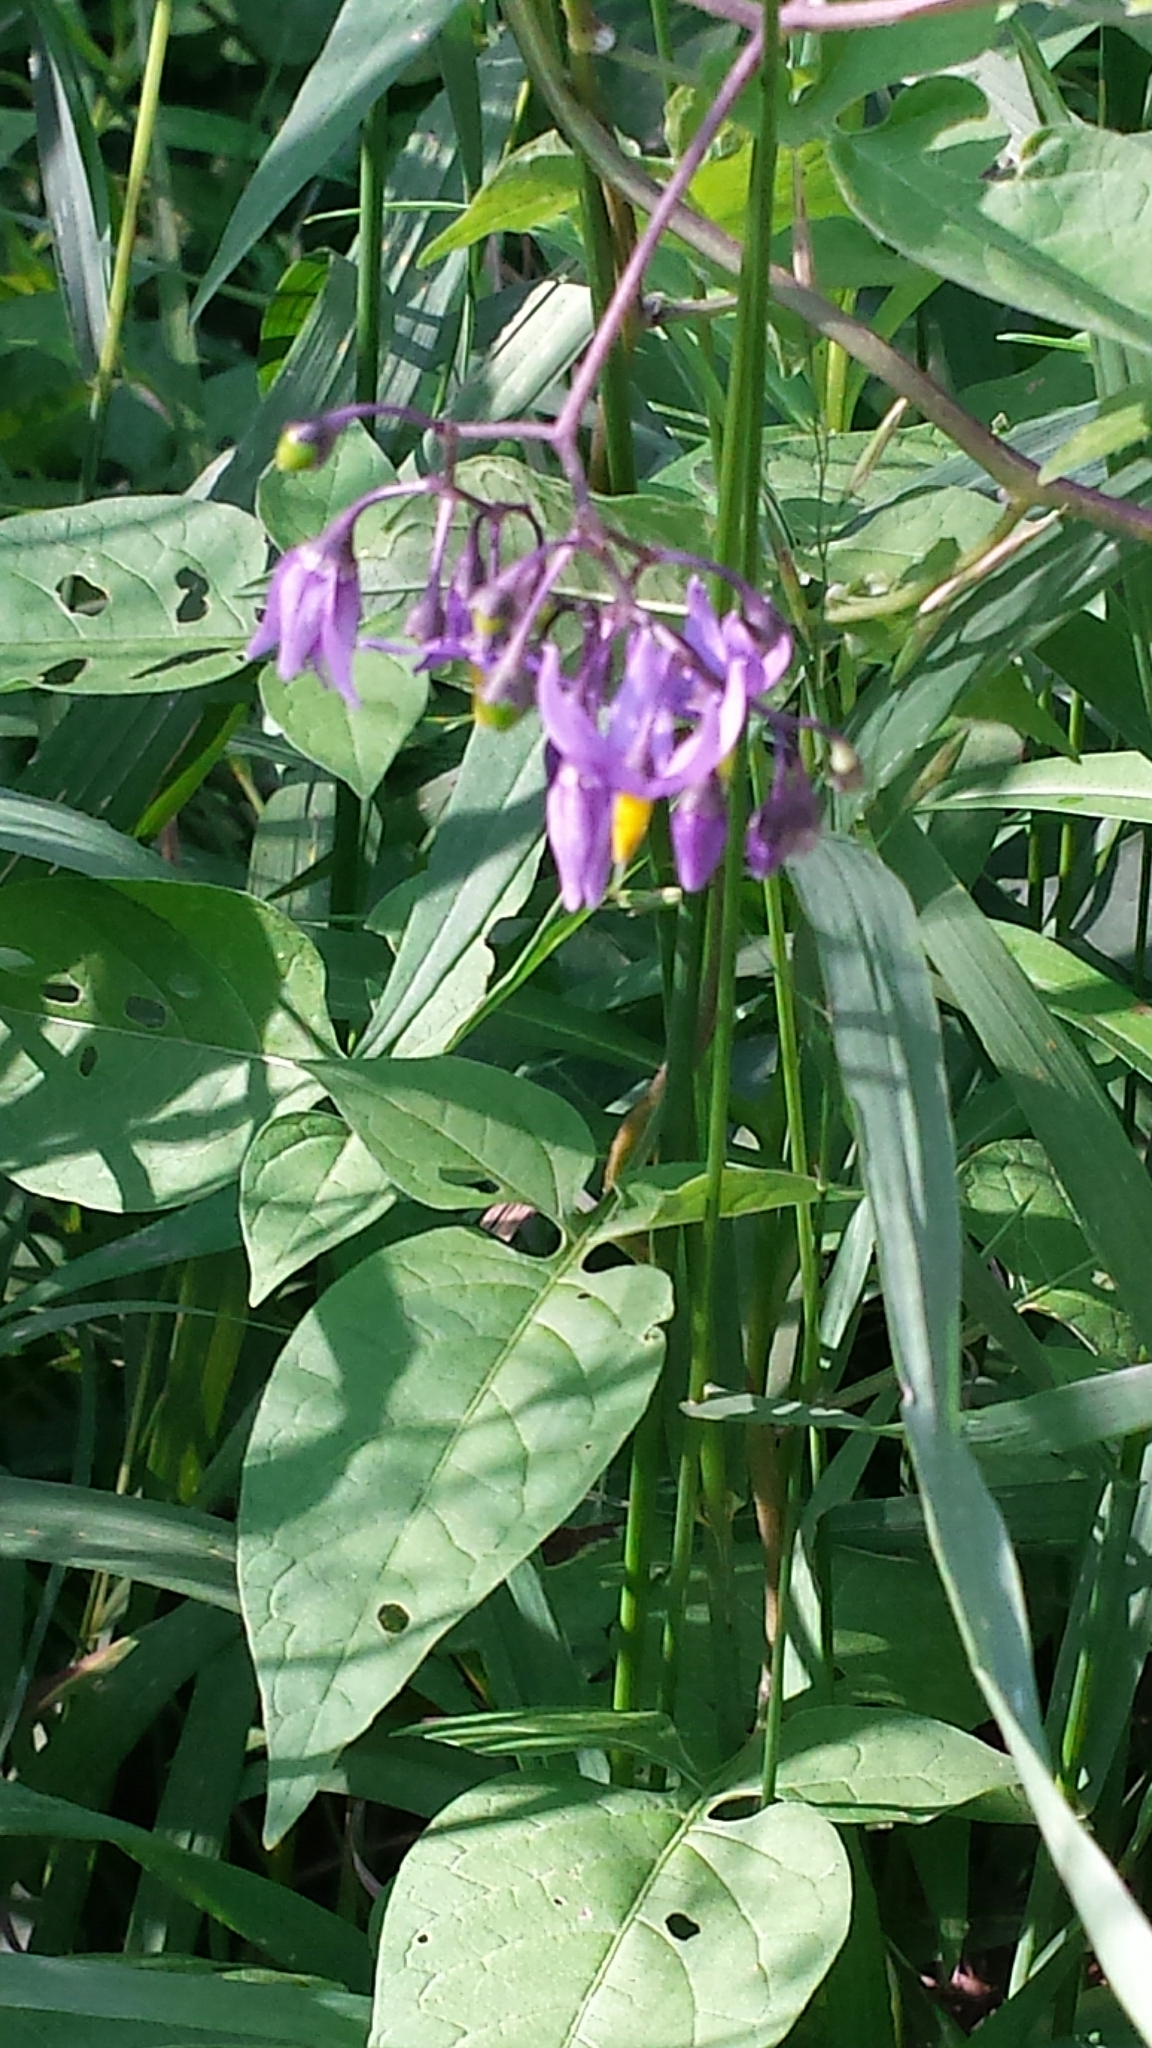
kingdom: Plantae
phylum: Tracheophyta
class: Magnoliopsida
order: Solanales
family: Solanaceae
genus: Solanum
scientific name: Solanum dulcamara
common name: Climbing nightshade
